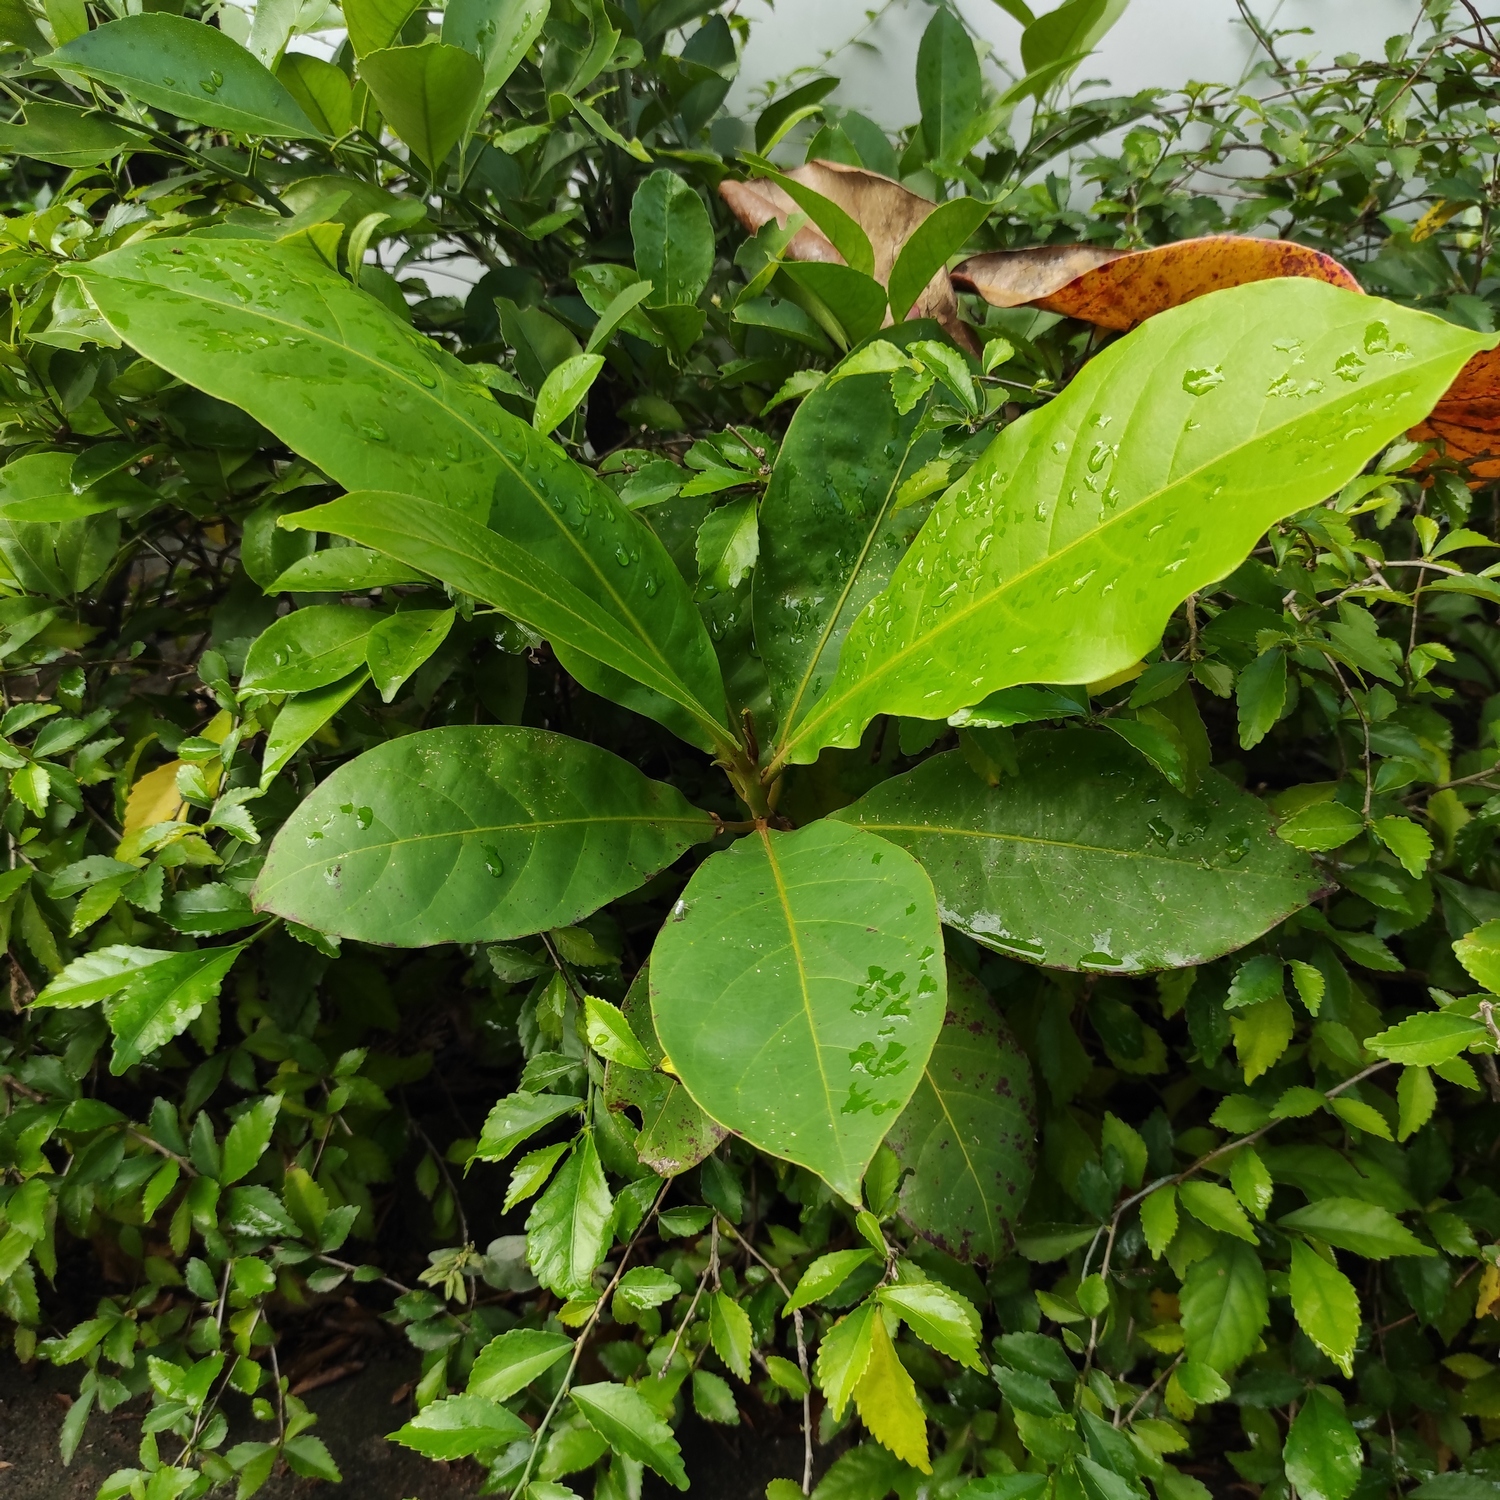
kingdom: Plantae
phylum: Tracheophyta
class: Magnoliopsida
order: Myrtales
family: Combretaceae
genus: Terminalia
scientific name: Terminalia catappa
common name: Tropical almond
